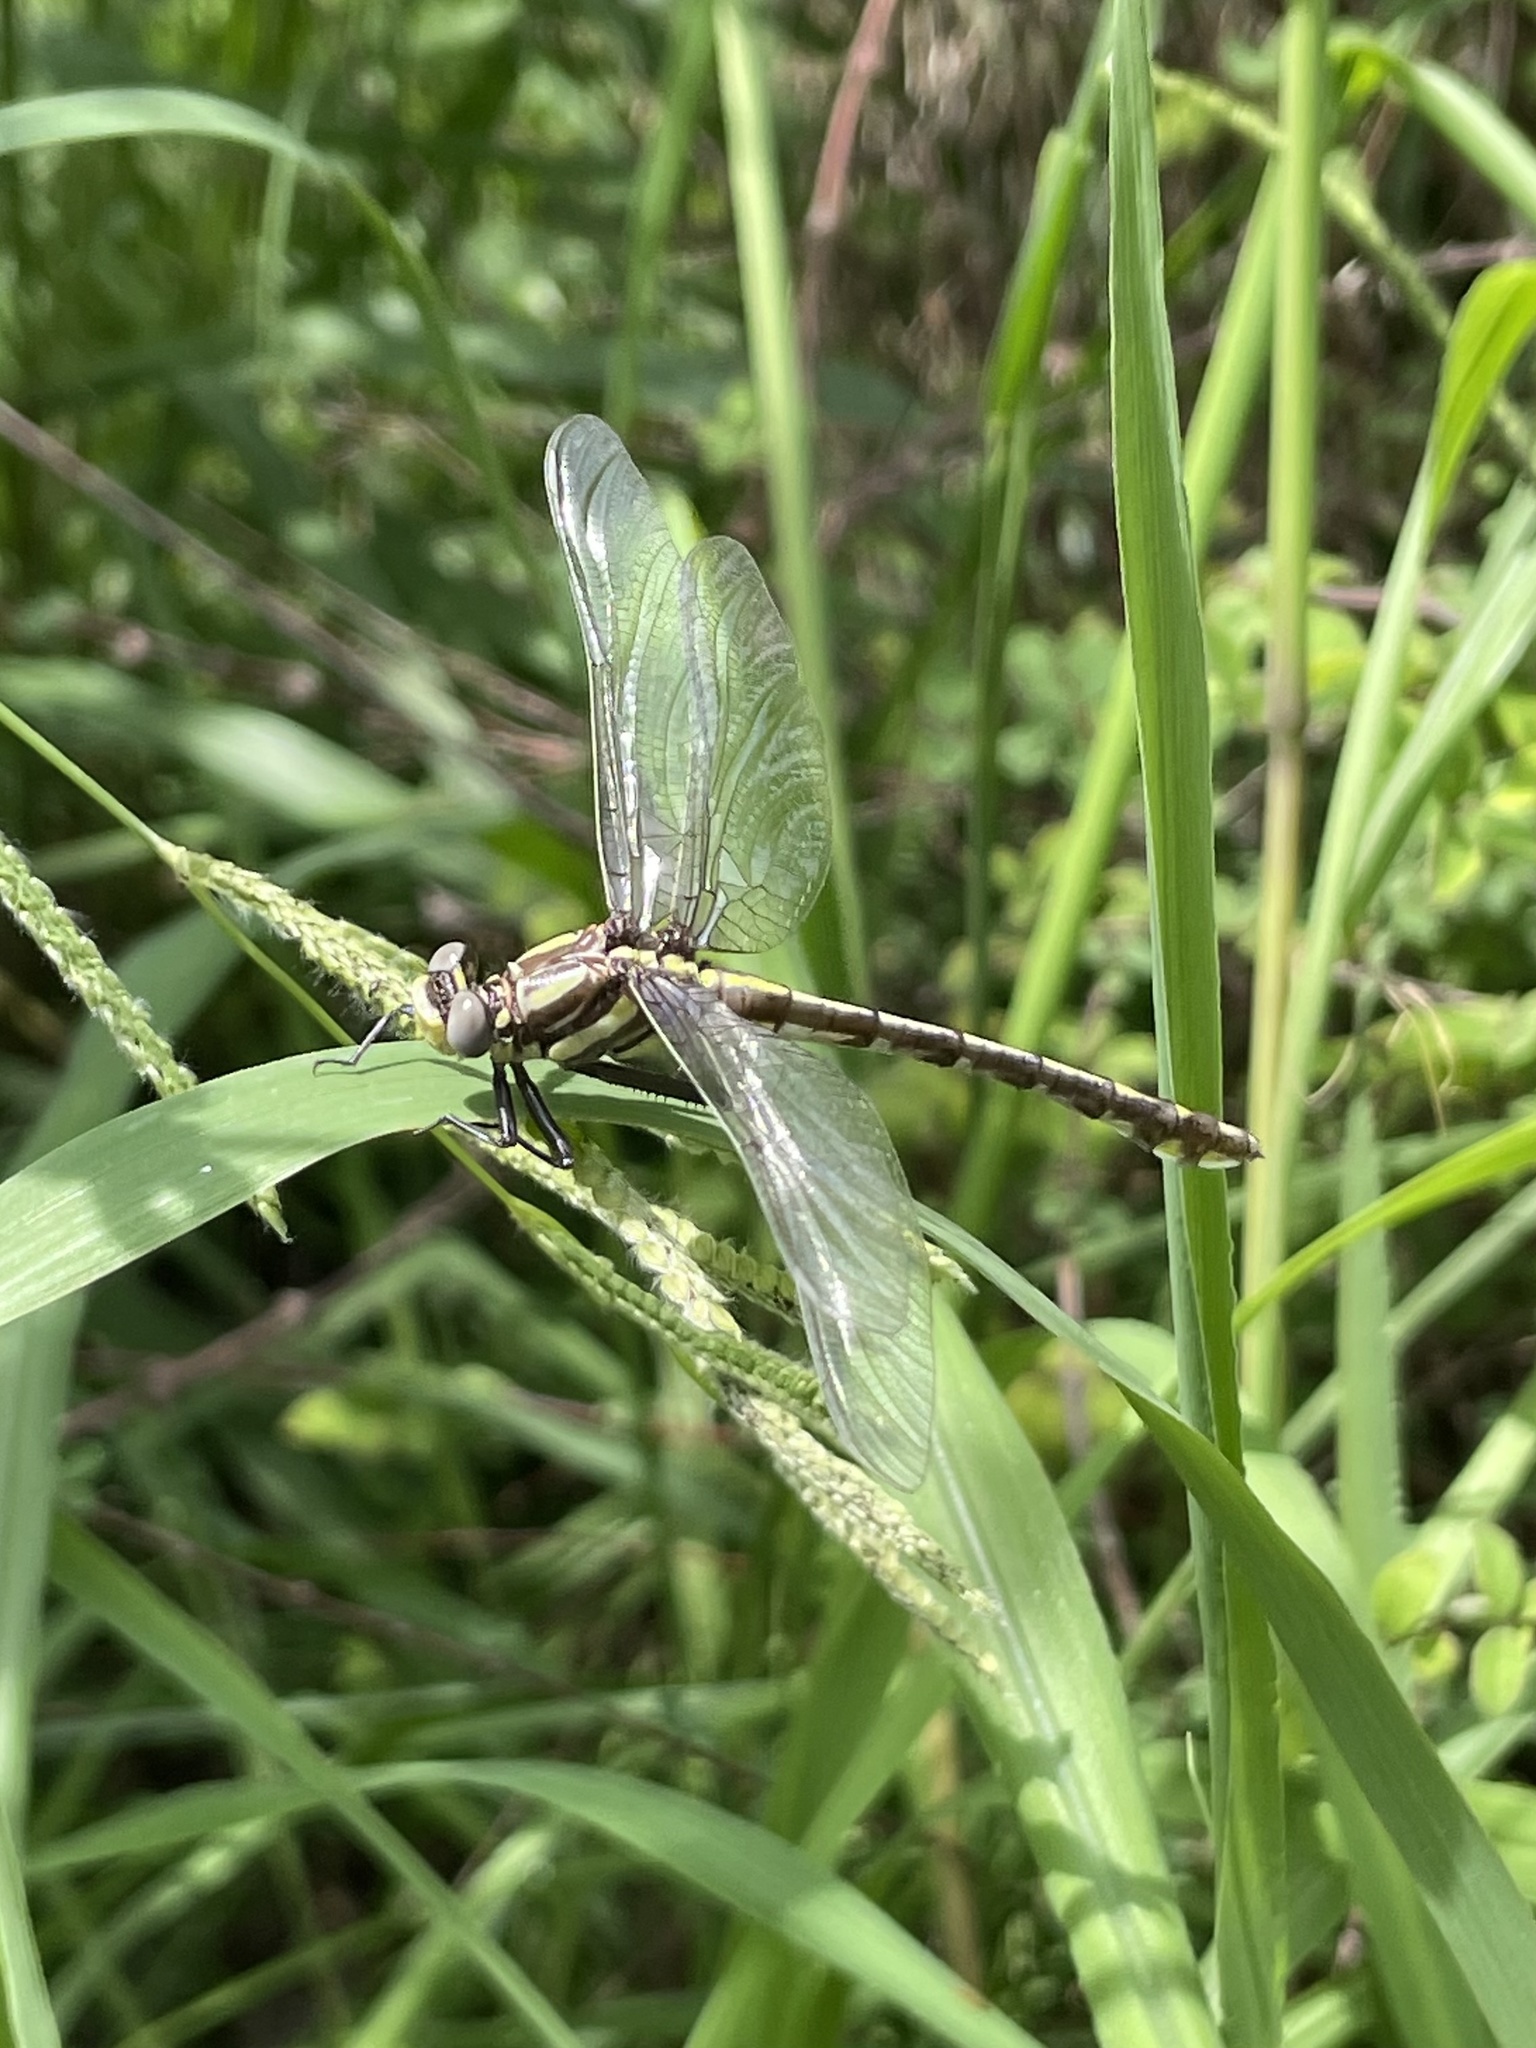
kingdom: Animalia
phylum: Arthropoda
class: Insecta
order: Odonata
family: Gomphidae
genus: Gomphurus
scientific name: Gomphurus externus
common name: Plains clubtail
